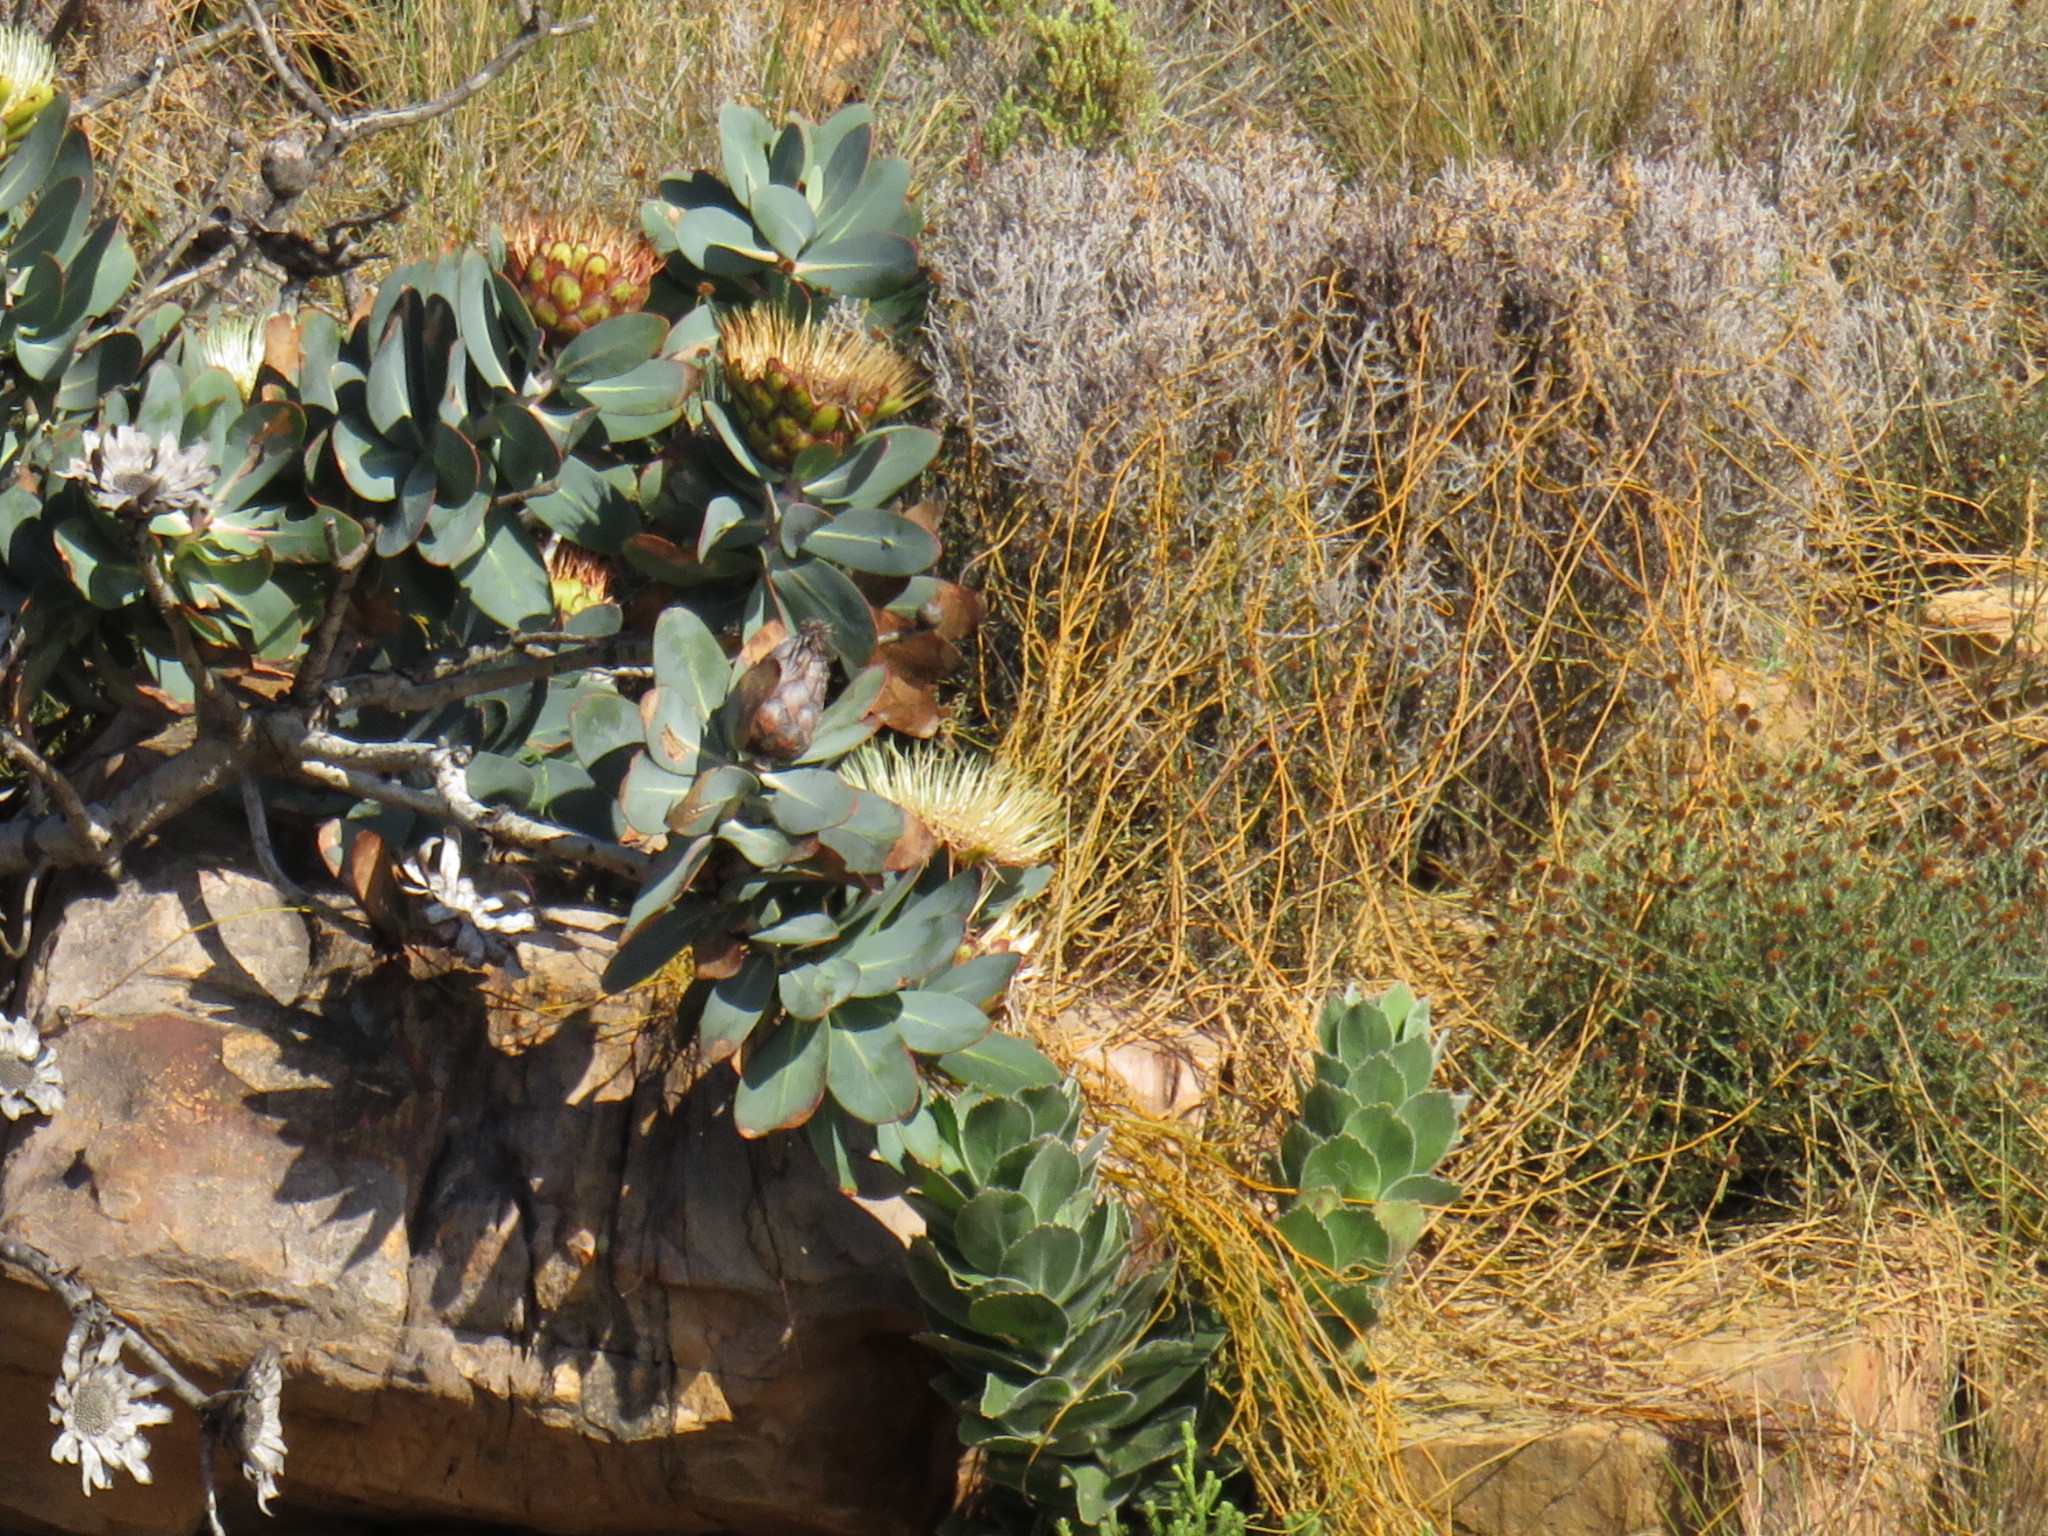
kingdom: Plantae
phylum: Tracheophyta
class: Magnoliopsida
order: Laurales
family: Lauraceae
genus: Cassytha
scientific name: Cassytha ciliolata
